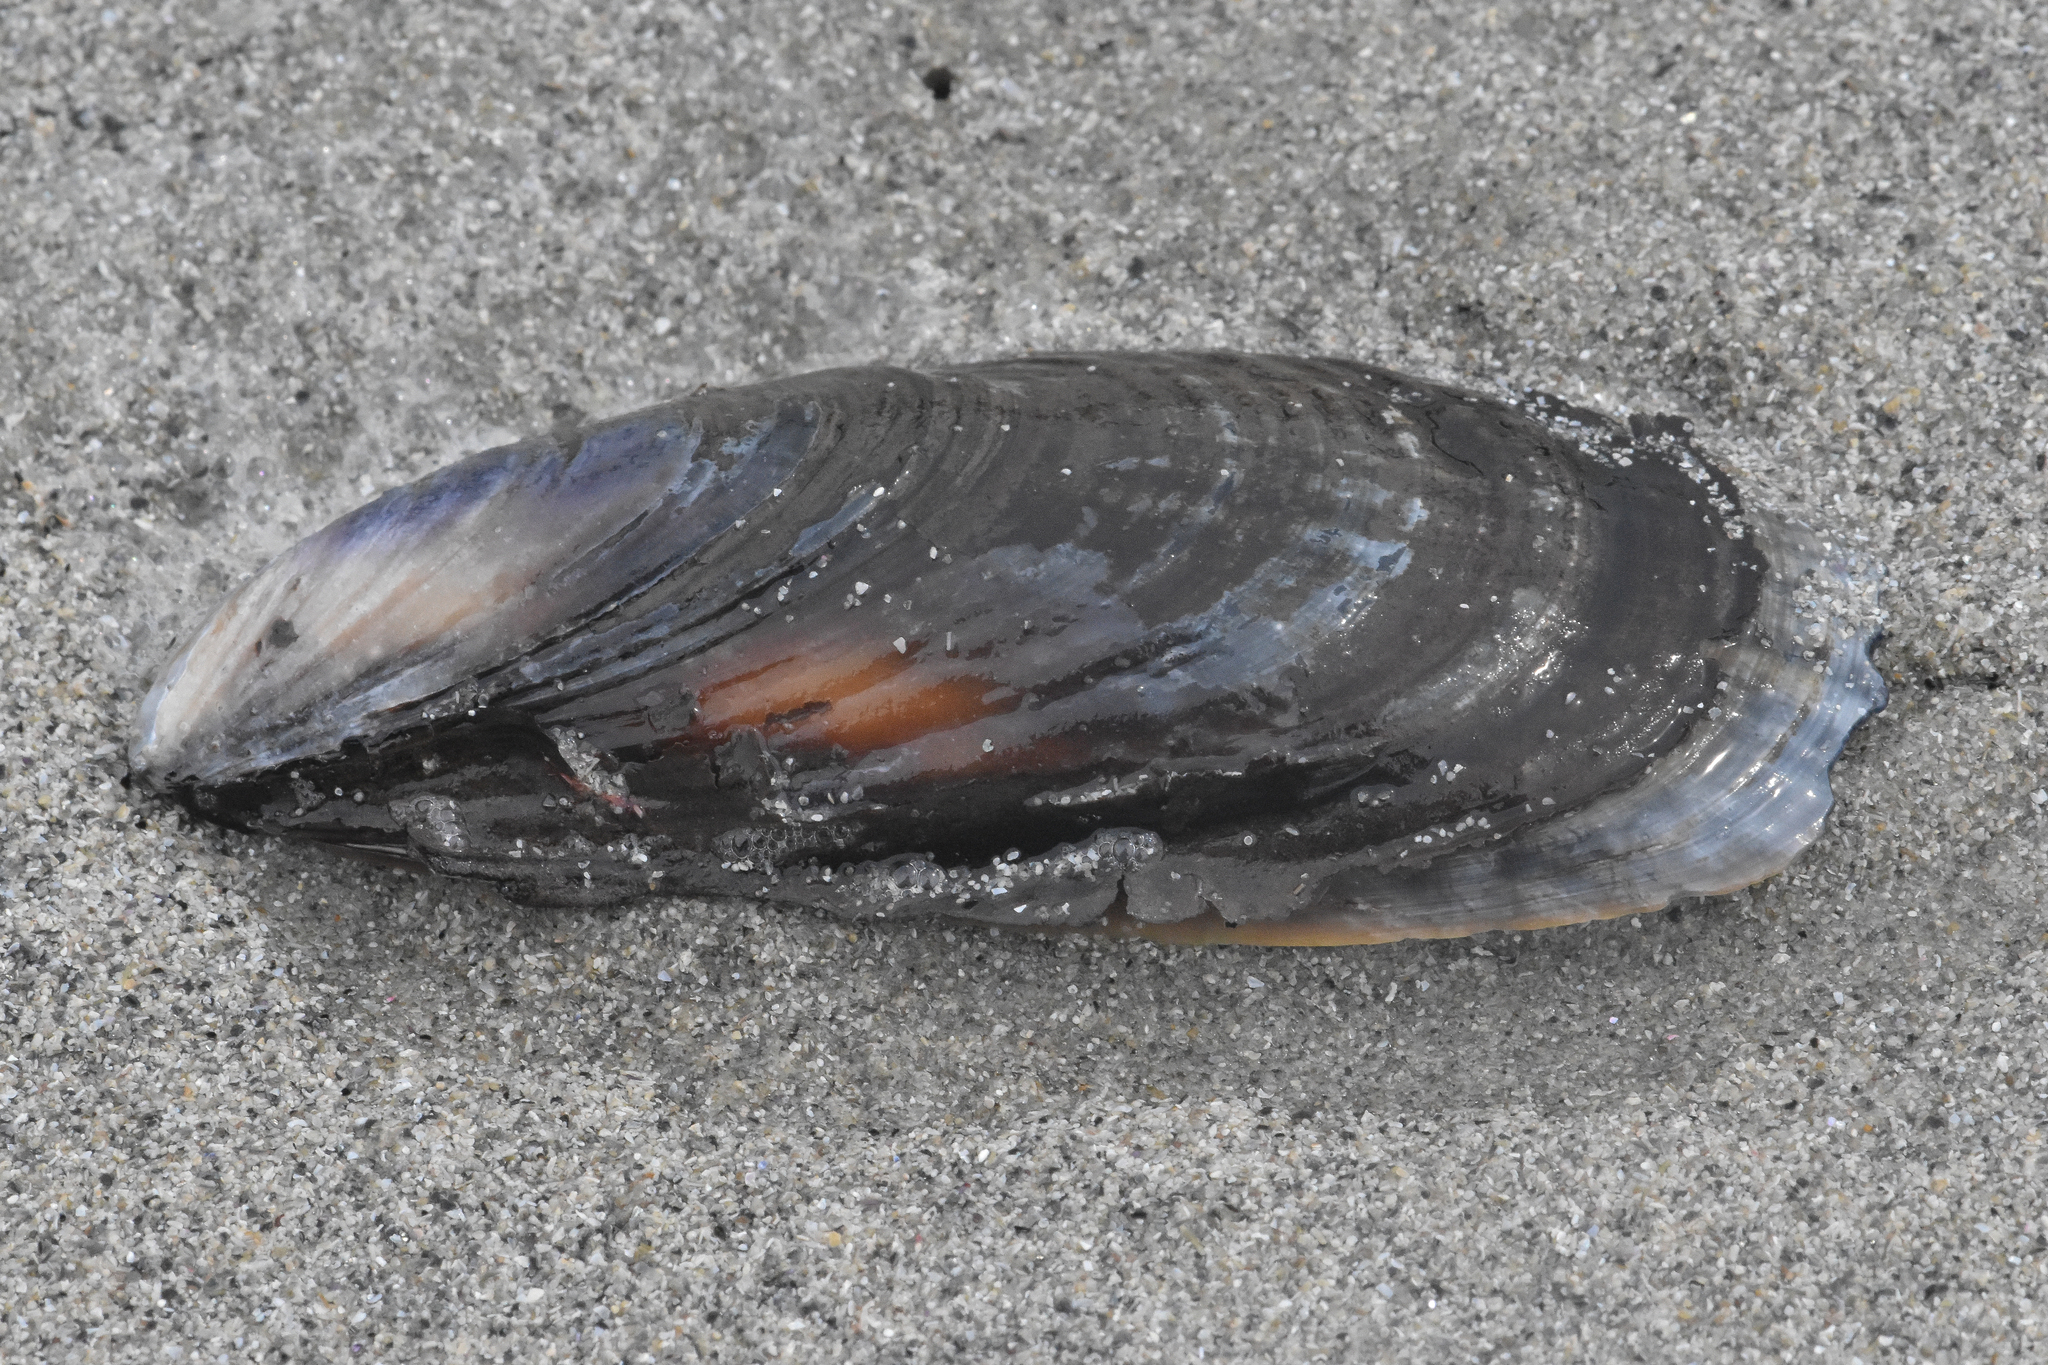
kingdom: Animalia
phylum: Mollusca
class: Bivalvia
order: Mytilida
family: Mytilidae
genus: Mytilus
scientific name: Mytilus californianus
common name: California mussel
